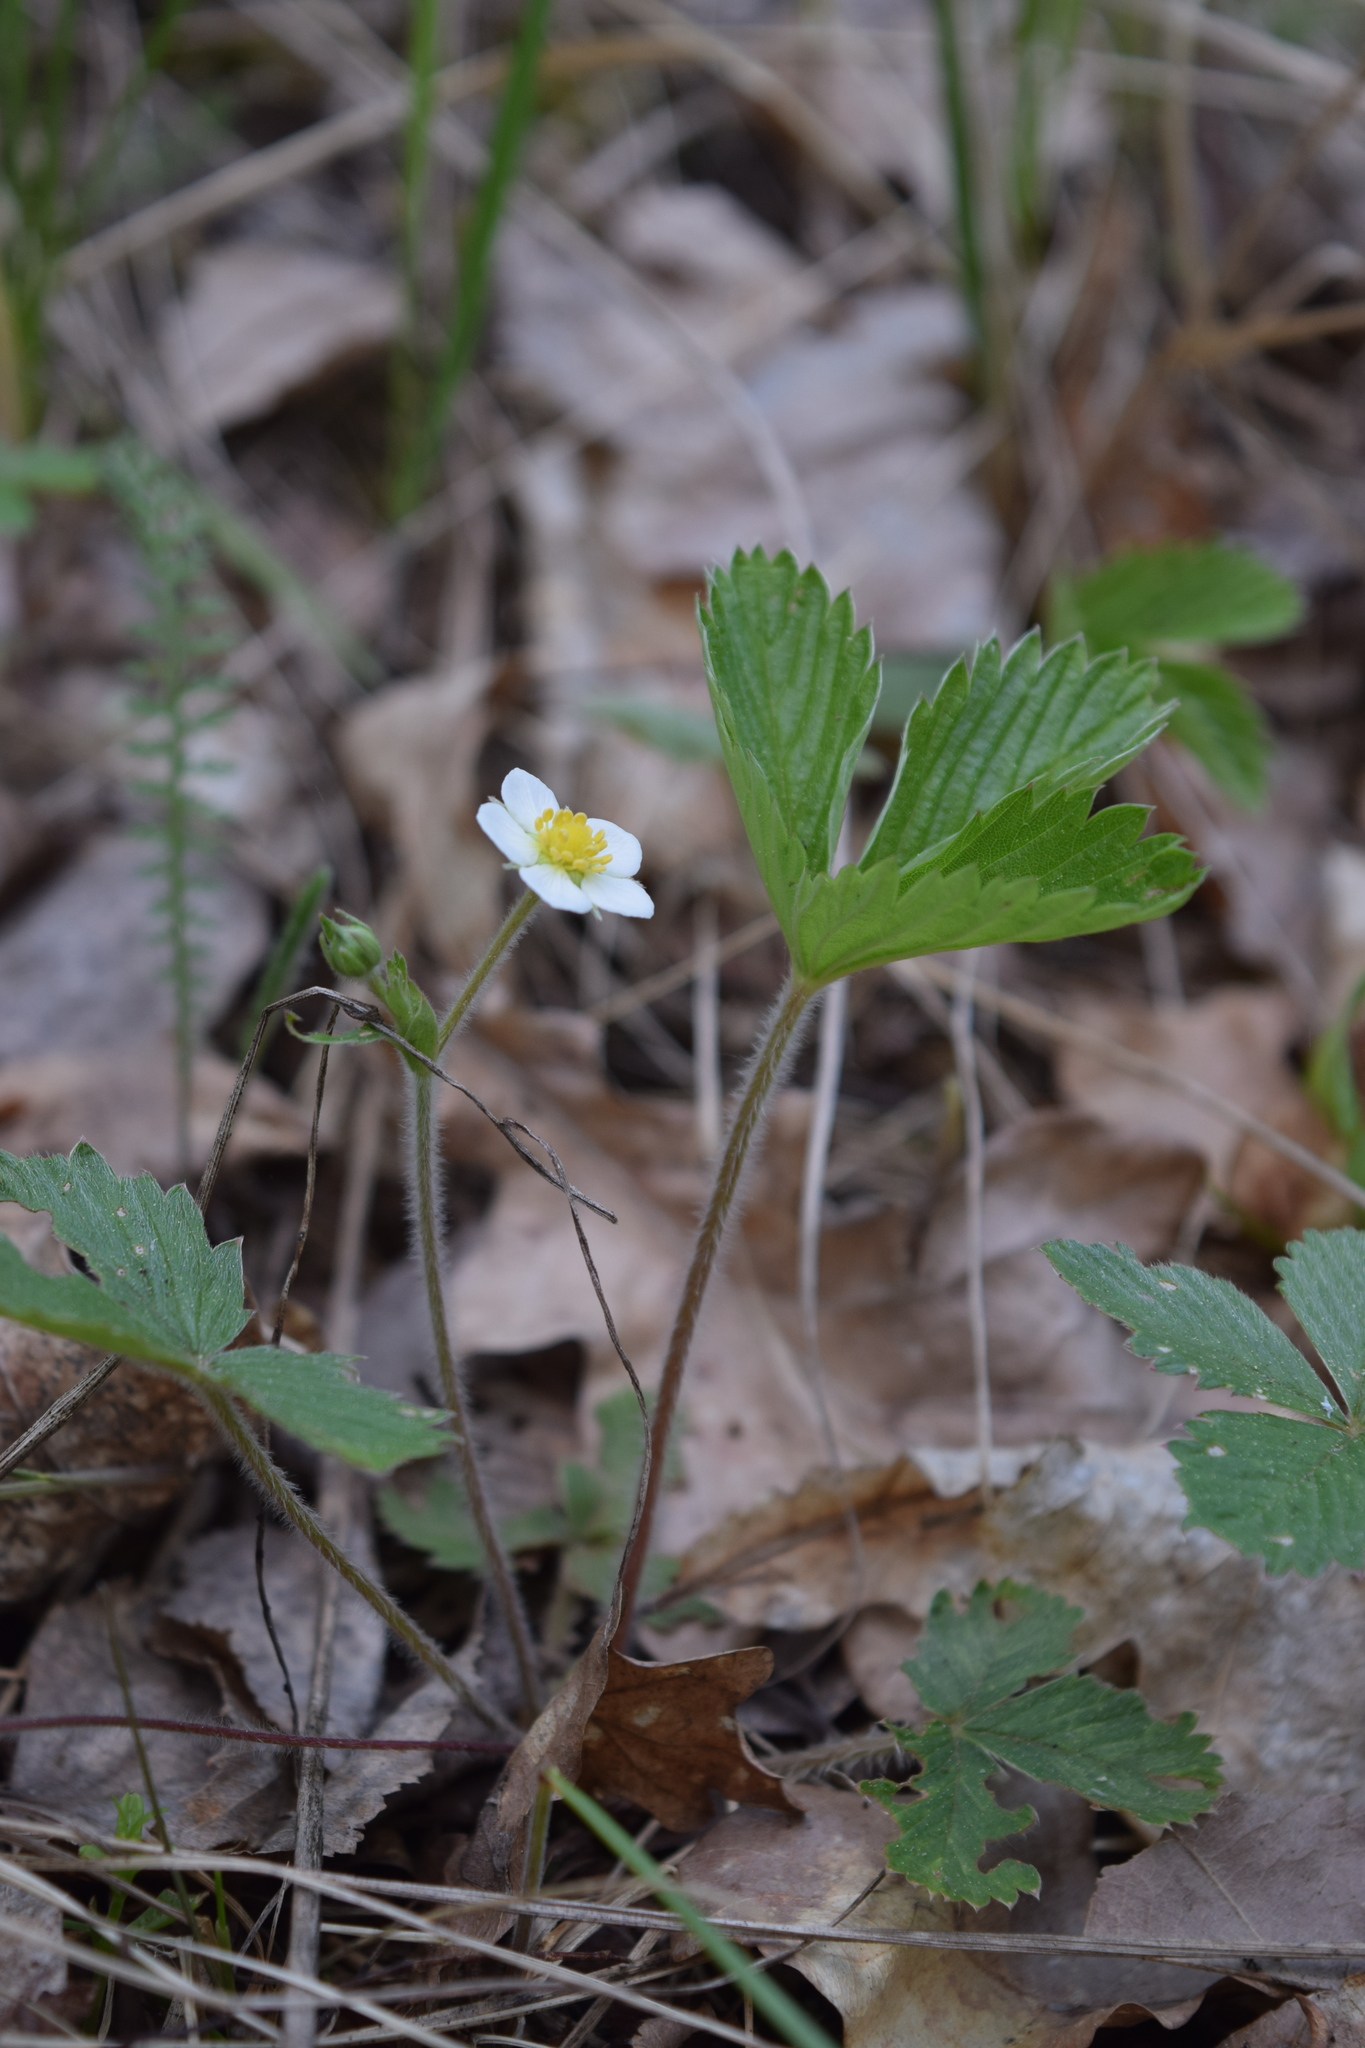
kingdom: Plantae
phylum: Tracheophyta
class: Magnoliopsida
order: Rosales
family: Rosaceae
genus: Fragaria
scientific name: Fragaria vesca
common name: Wild strawberry
